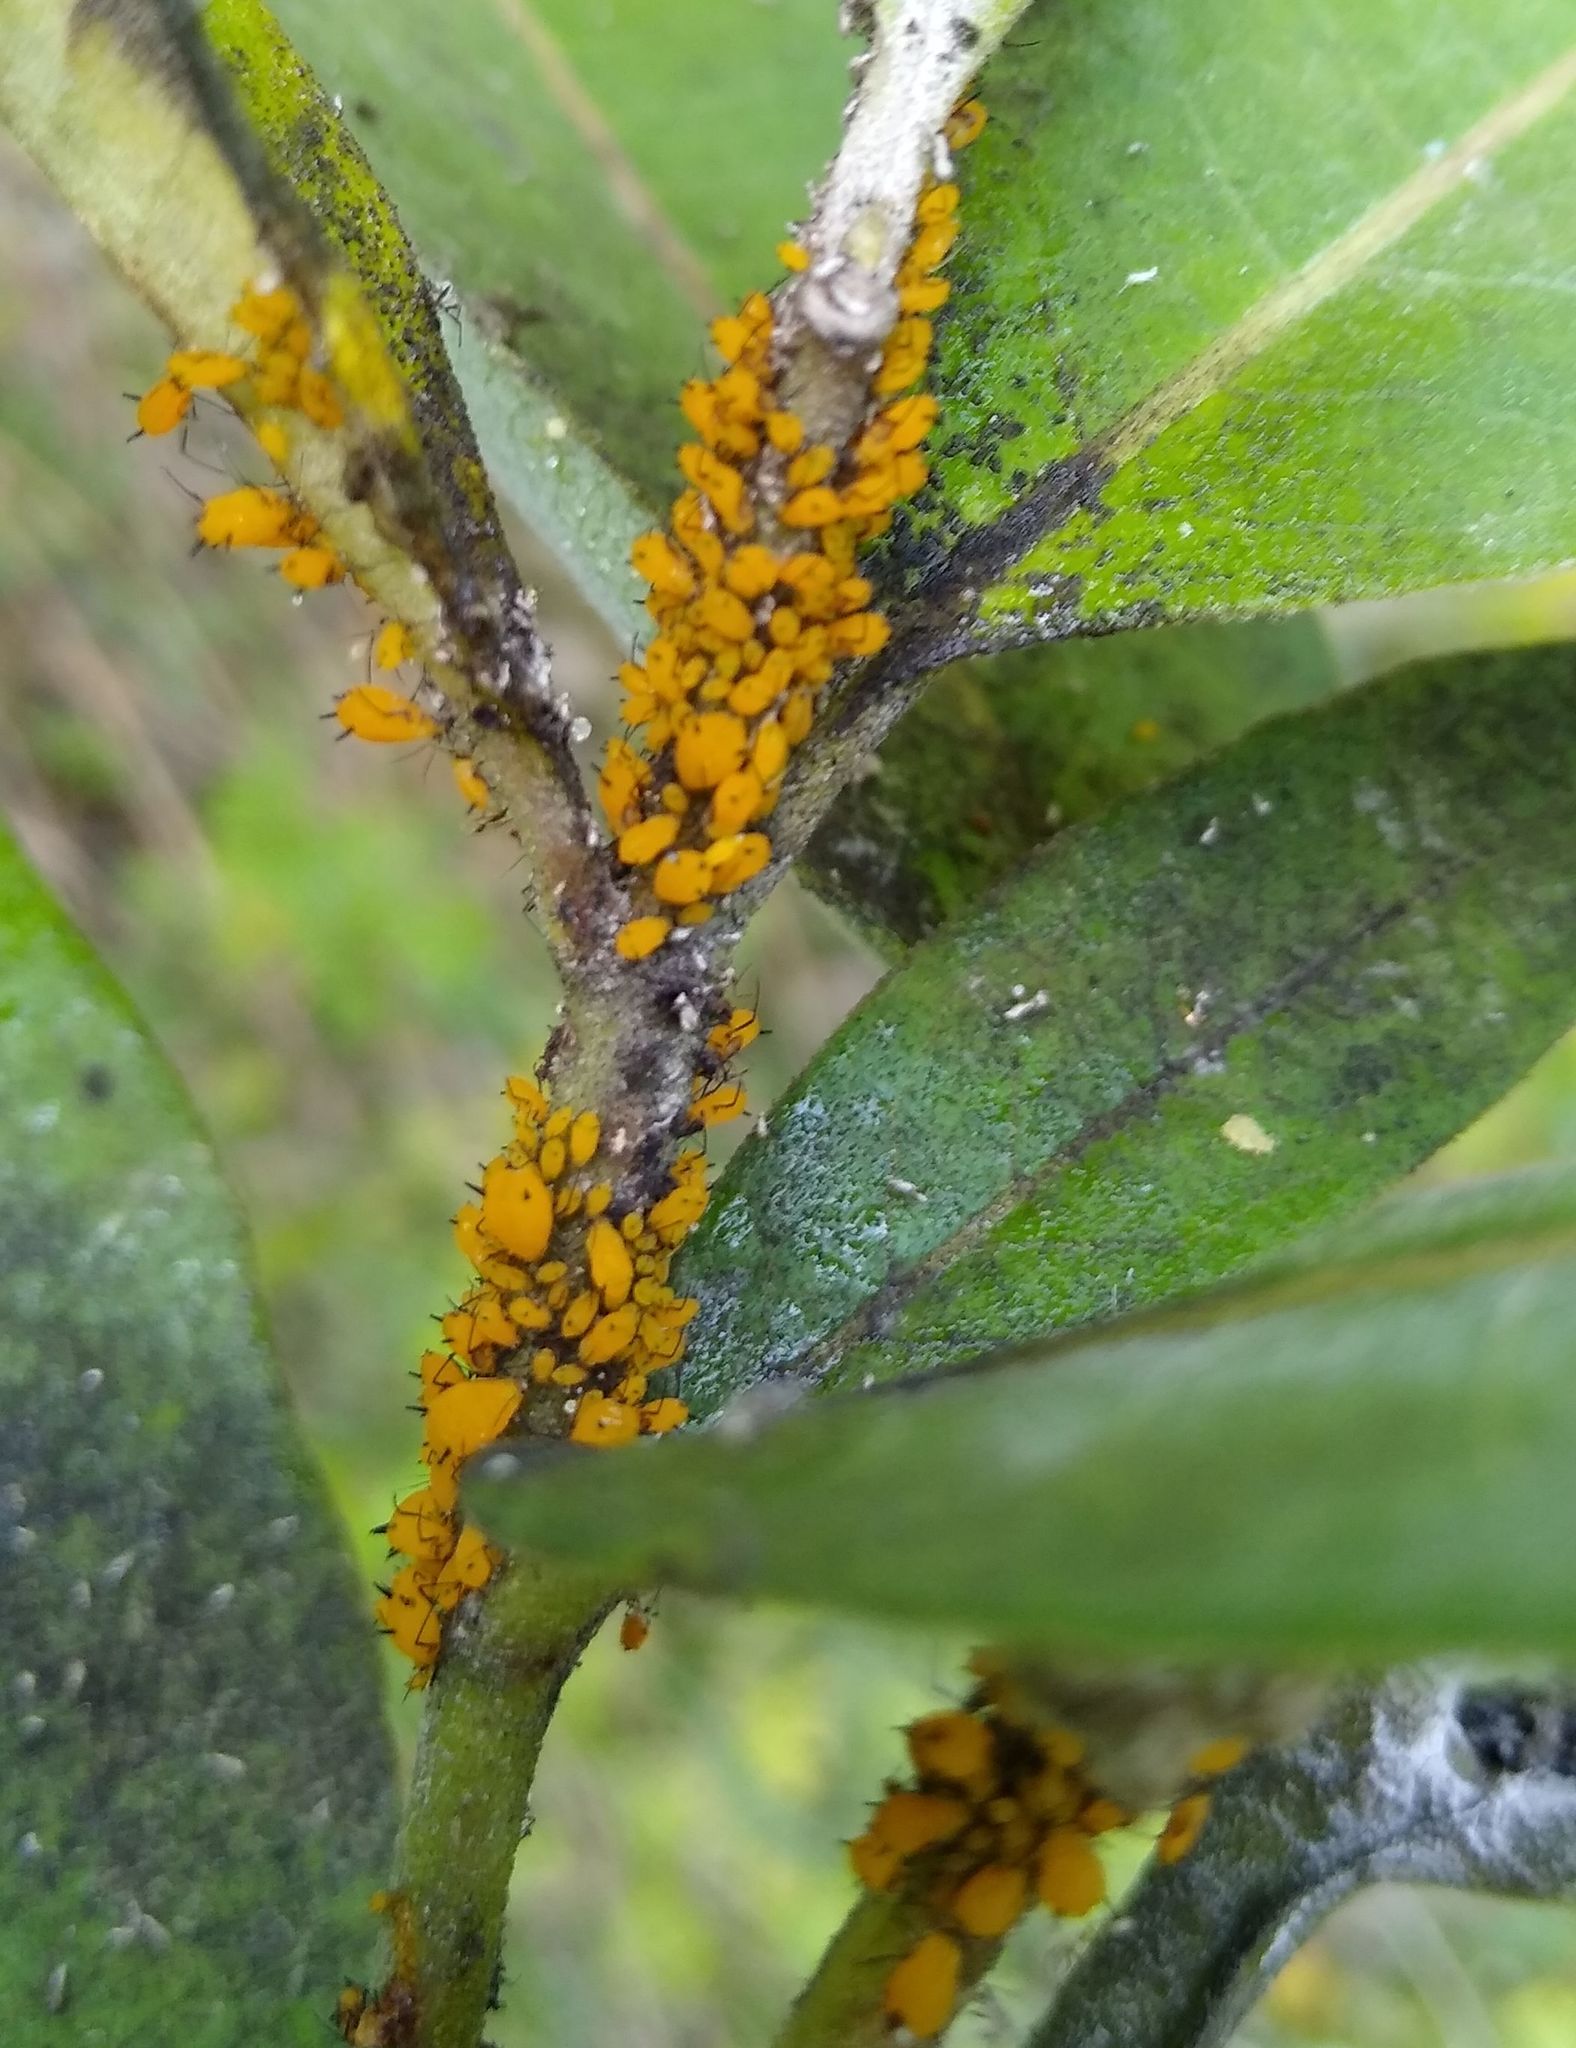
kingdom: Animalia
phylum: Arthropoda
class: Insecta
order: Hemiptera
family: Aphididae
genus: Aphis
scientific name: Aphis nerii
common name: Oleander aphid
